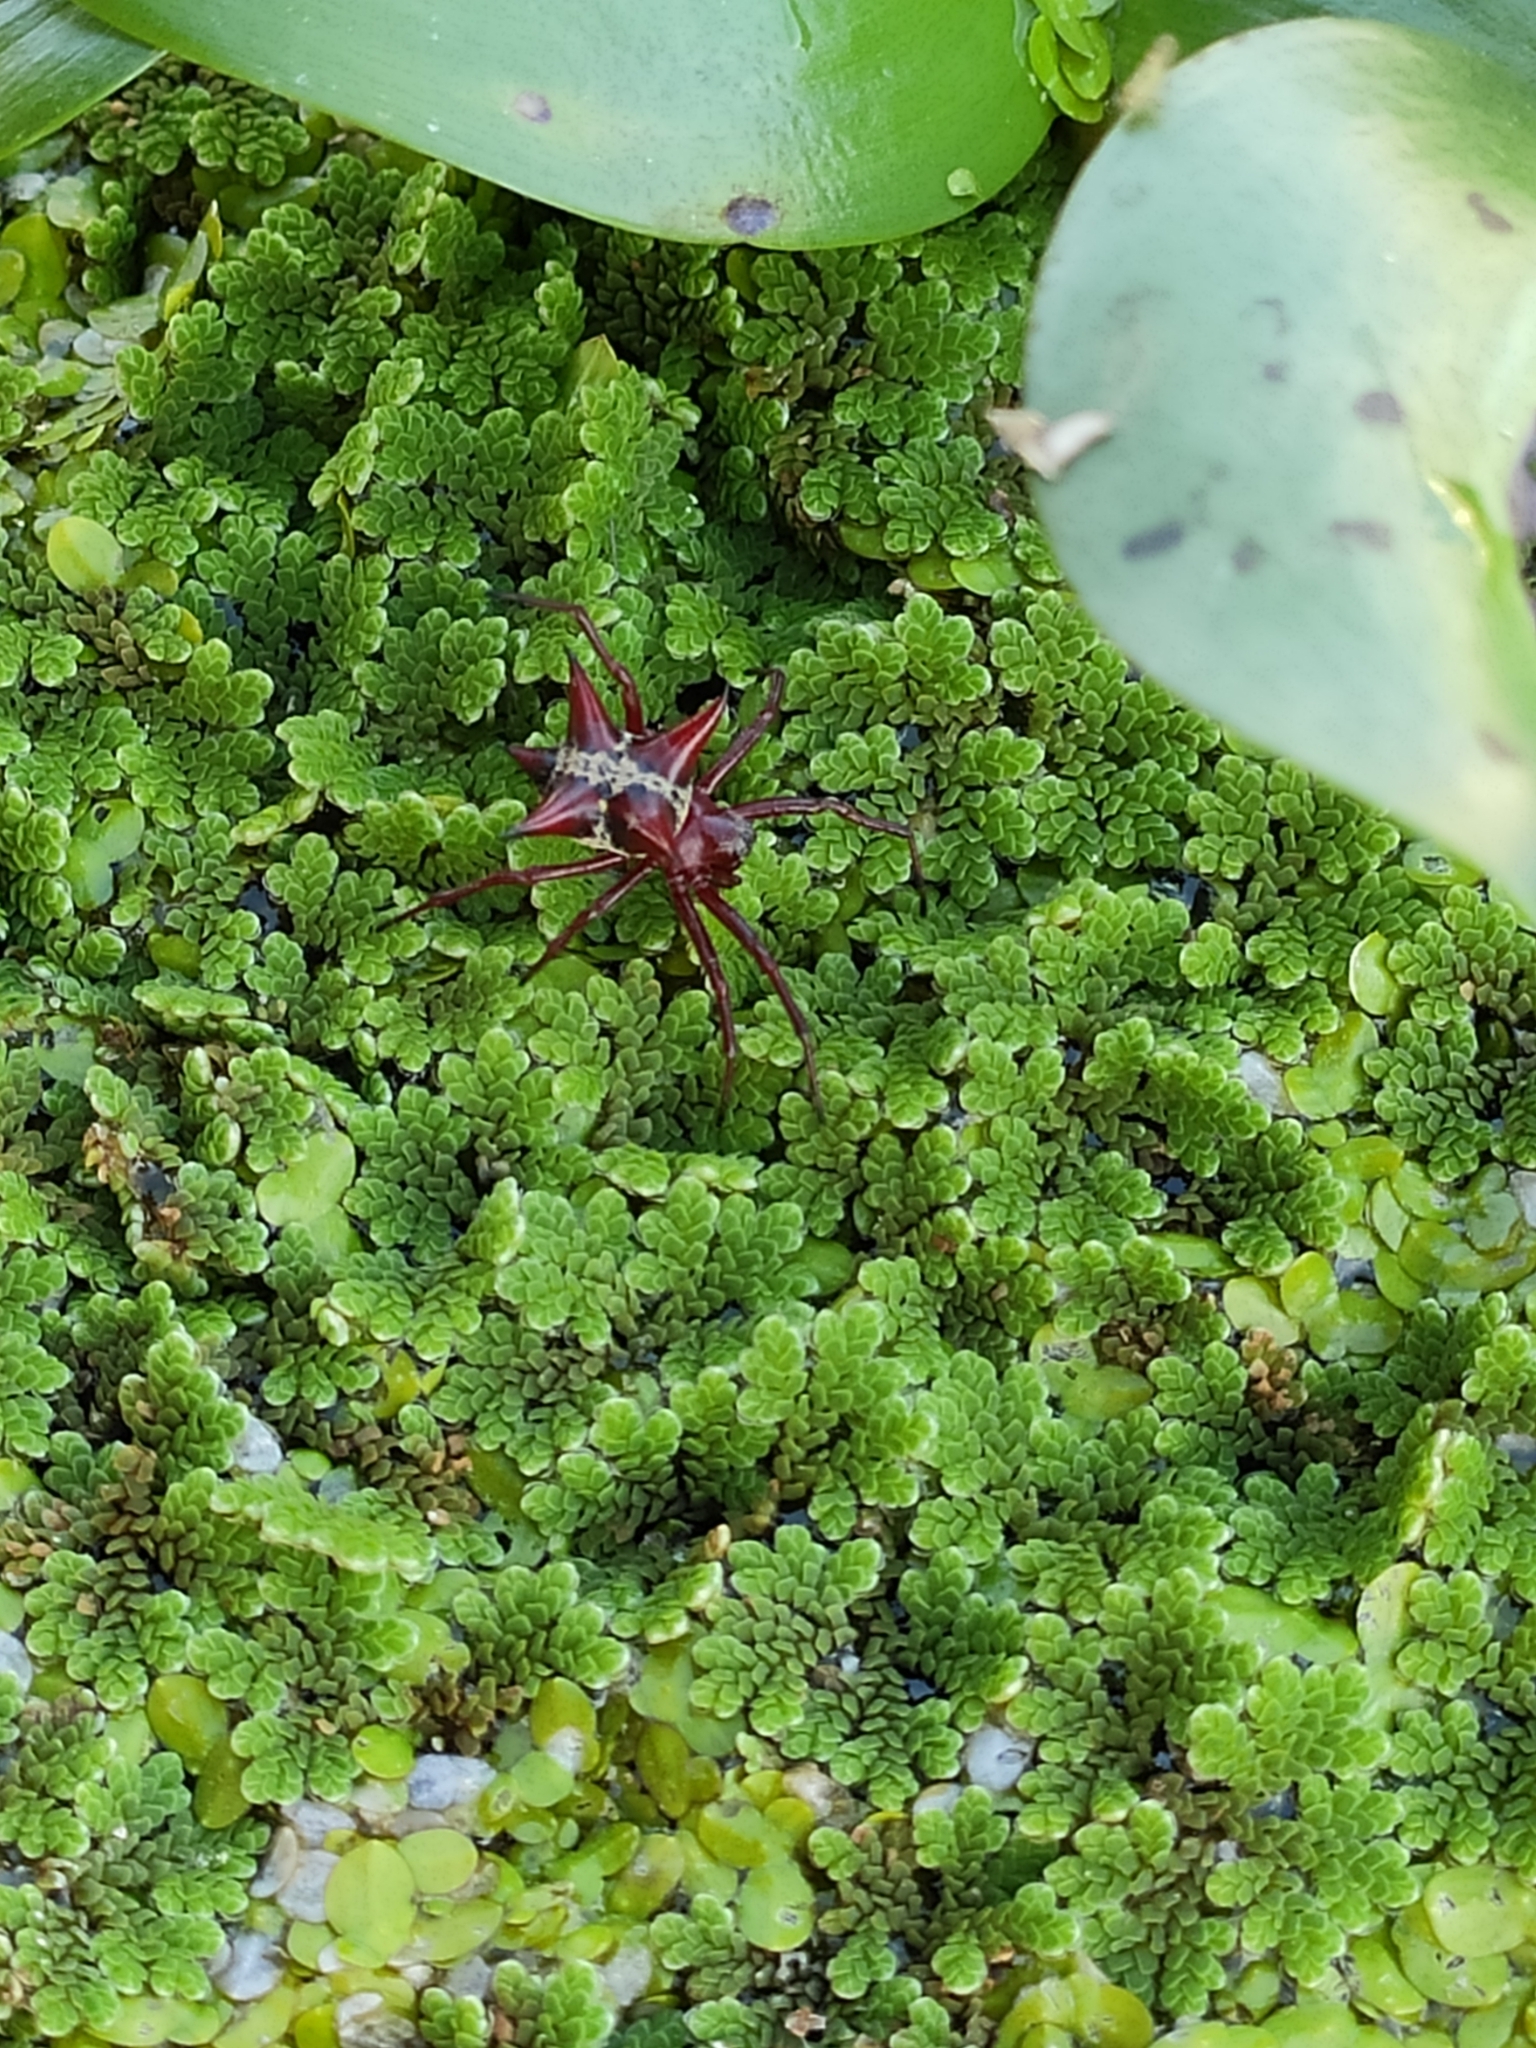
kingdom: Animalia
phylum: Arthropoda
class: Arachnida
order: Araneae
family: Araneidae
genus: Actinosoma
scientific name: Actinosoma pentacanthum
